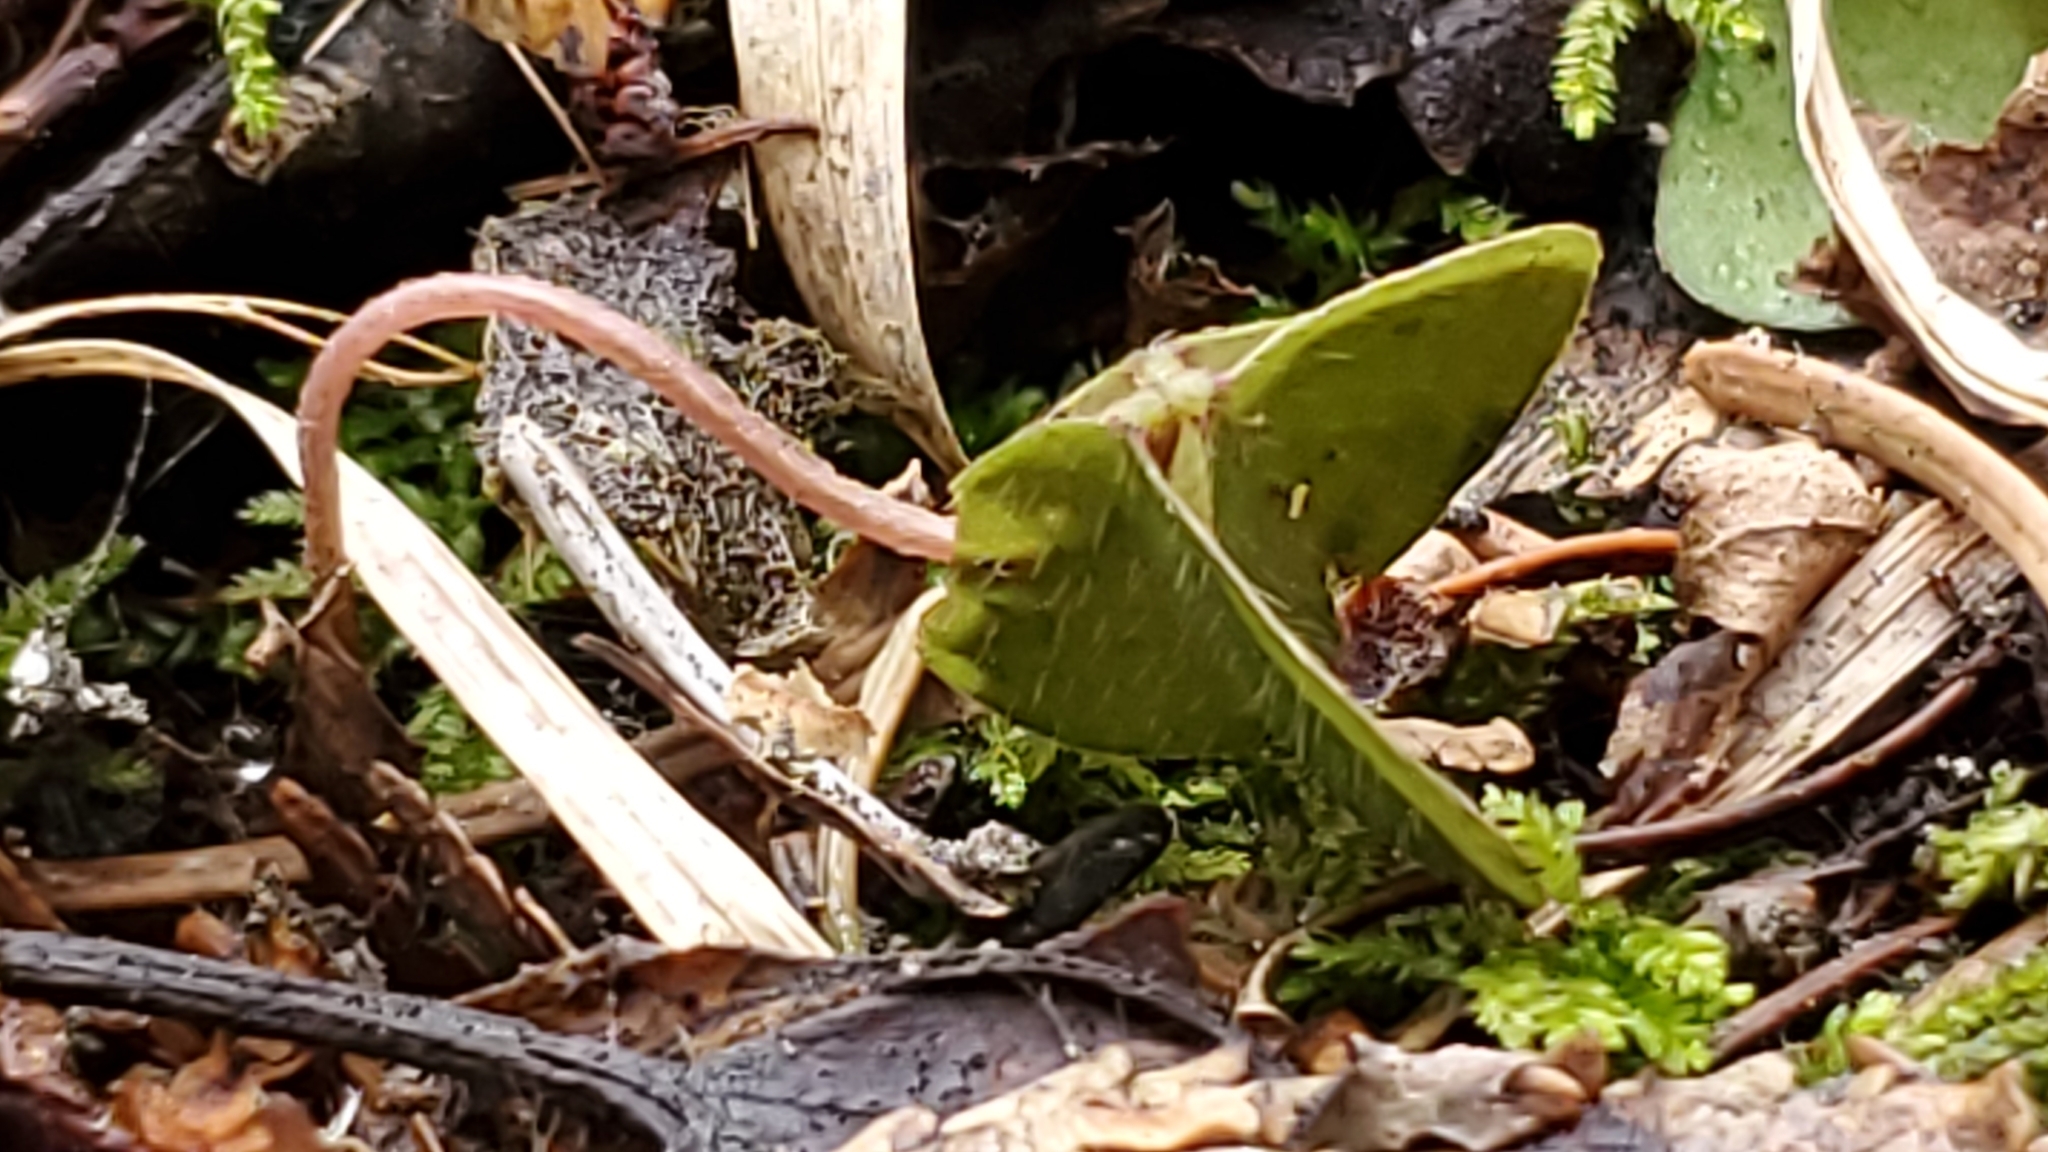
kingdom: Plantae
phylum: Tracheophyta
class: Magnoliopsida
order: Oxalidales
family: Oxalidaceae
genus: Oxalis
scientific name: Oxalis montana
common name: American wood-sorrel
